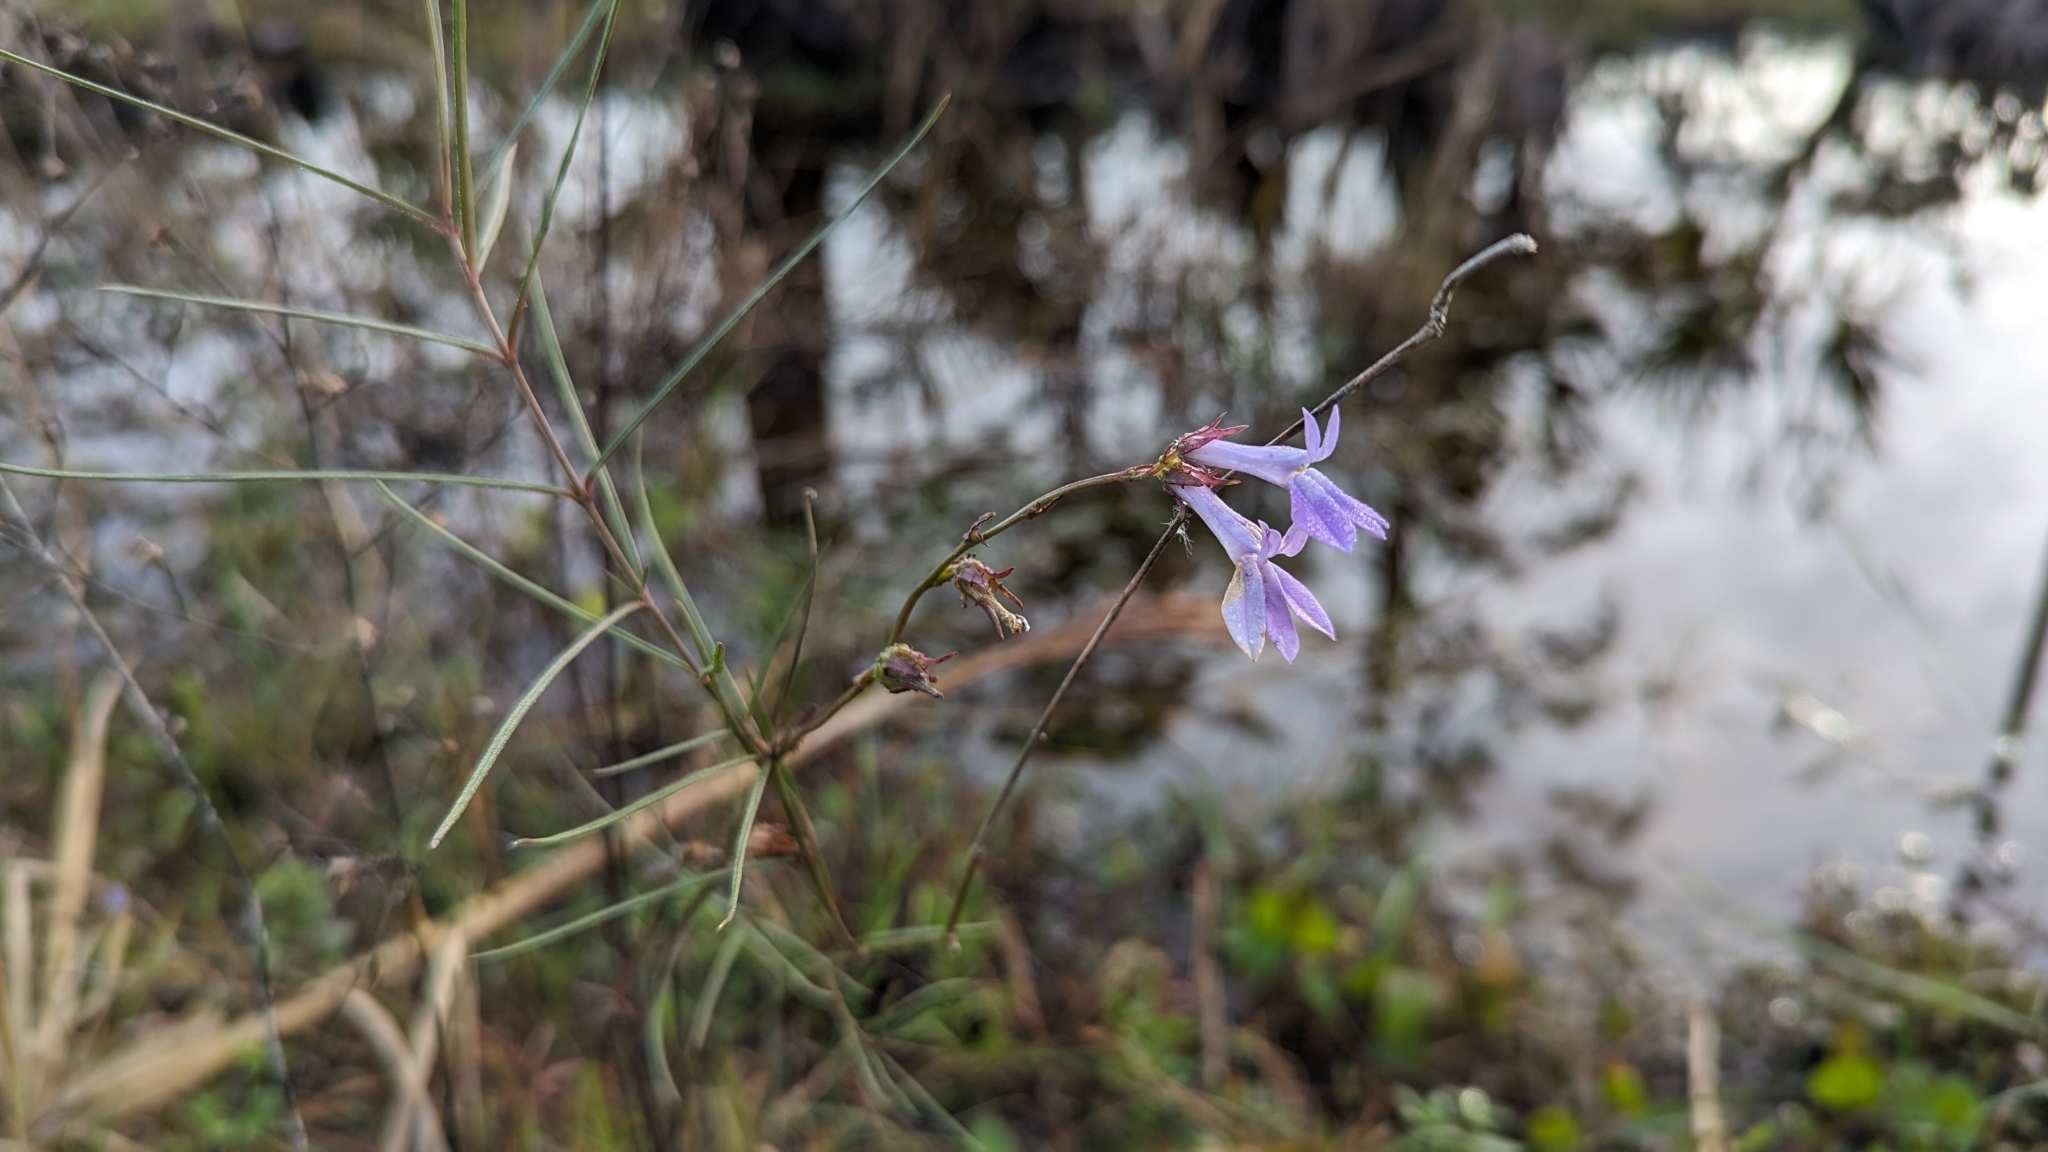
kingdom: Plantae
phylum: Tracheophyta
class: Magnoliopsida
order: Asterales
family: Campanulaceae
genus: Lobelia
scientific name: Lobelia glandulosa
